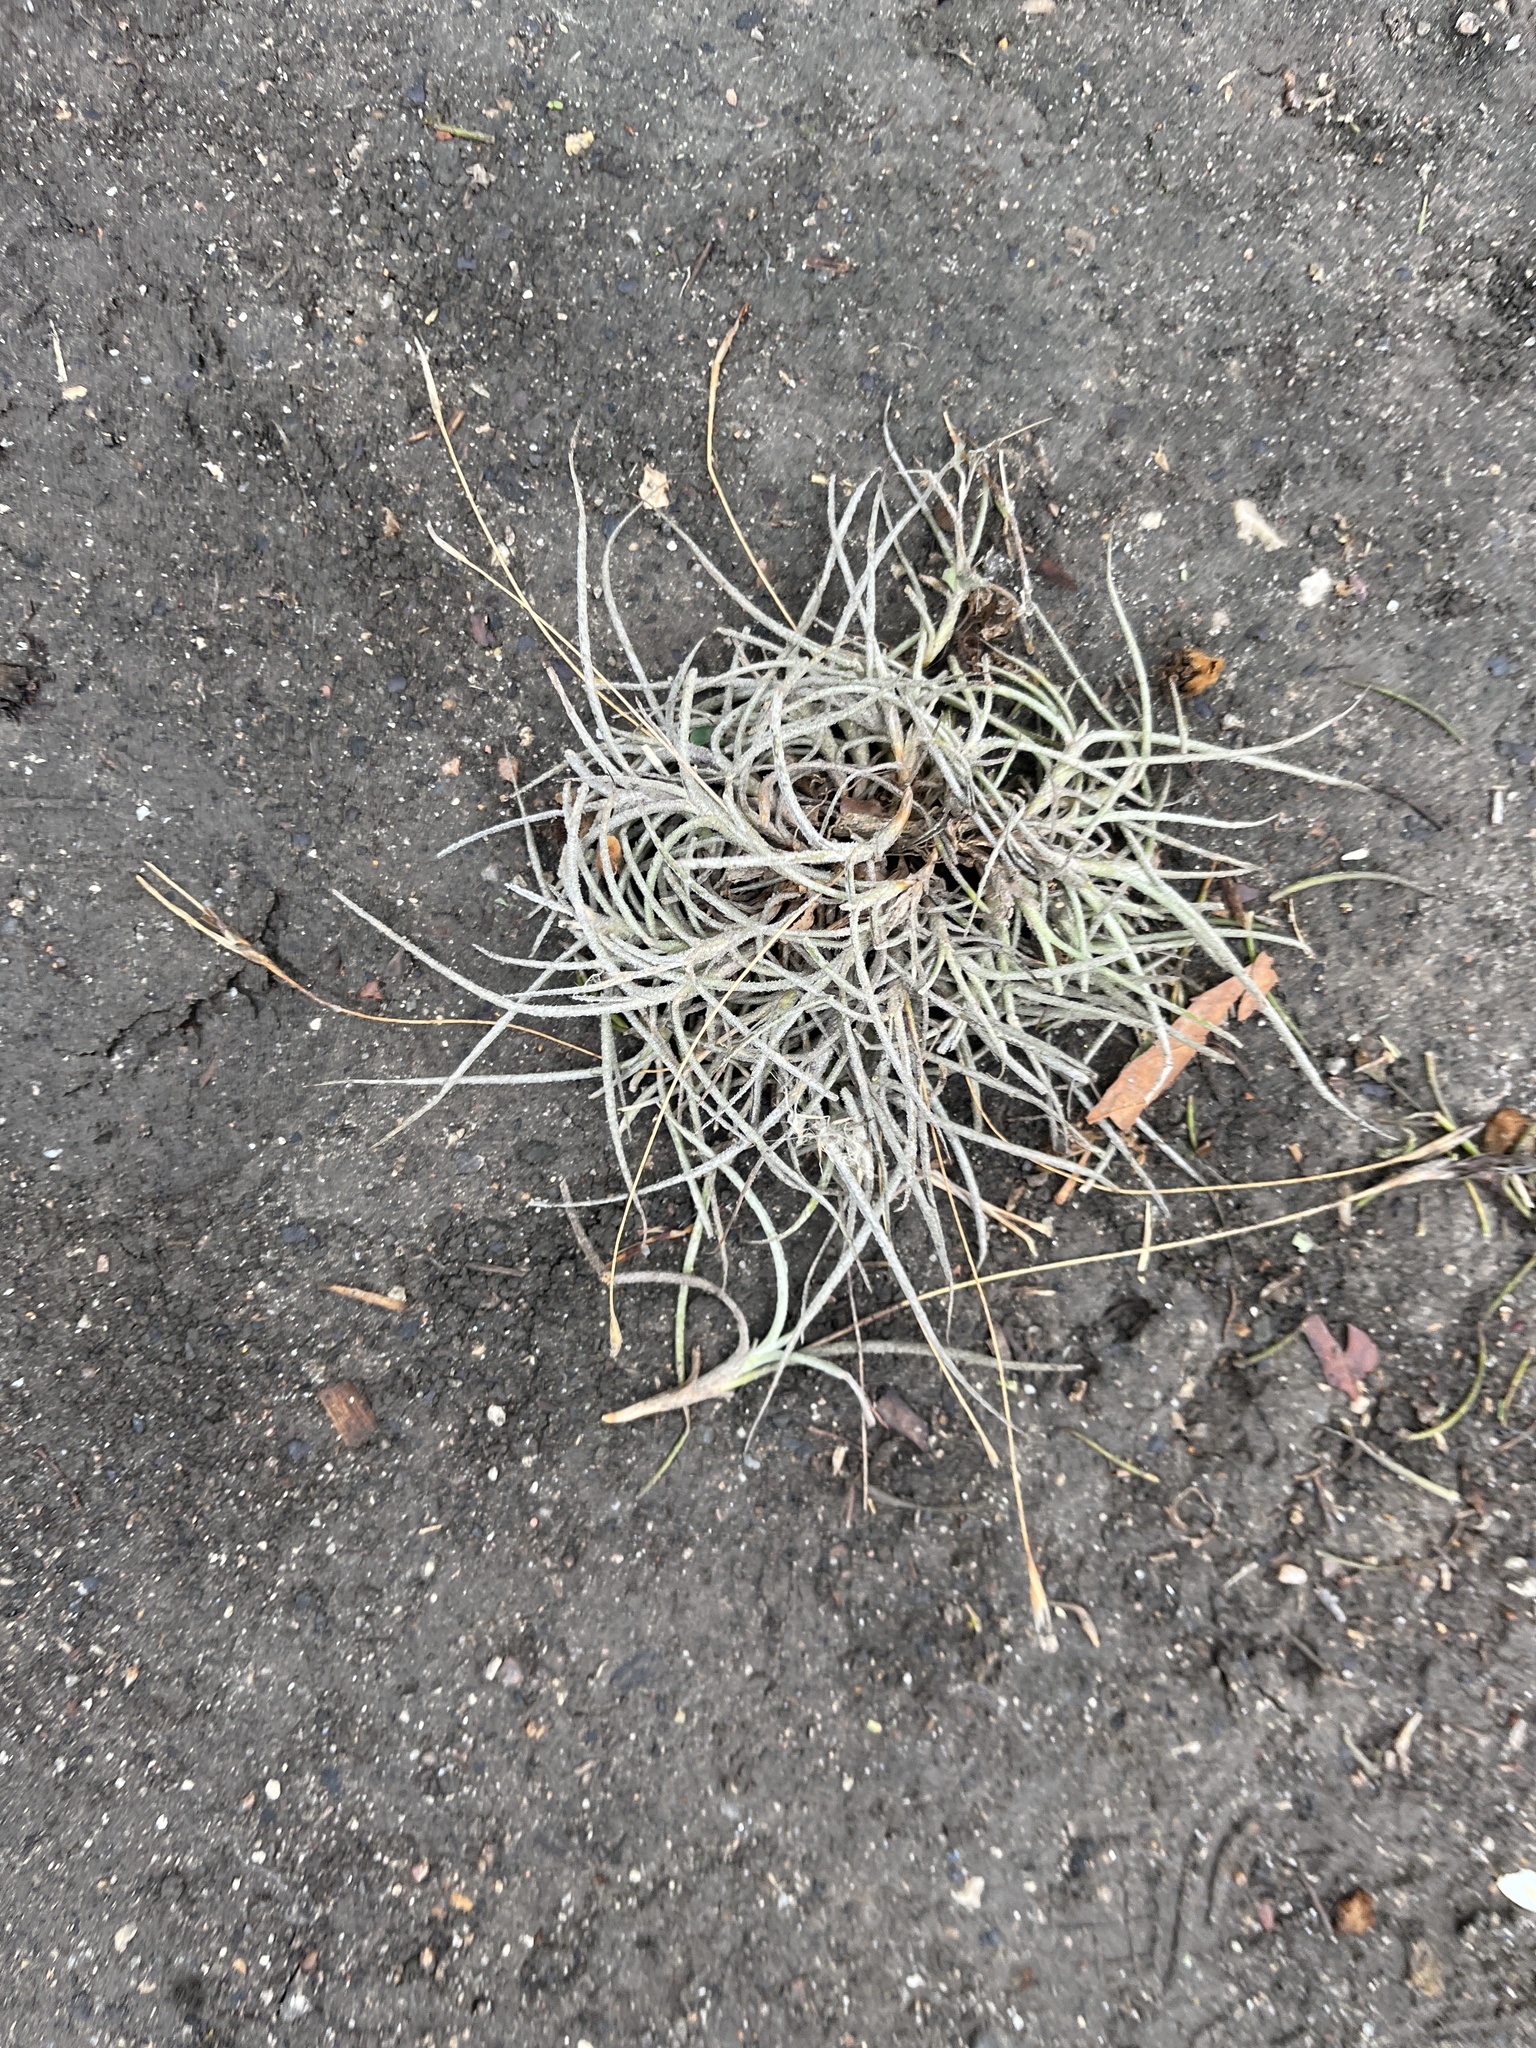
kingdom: Plantae
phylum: Tracheophyta
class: Liliopsida
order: Poales
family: Bromeliaceae
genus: Tillandsia
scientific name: Tillandsia recurvata
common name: Small ballmoss
